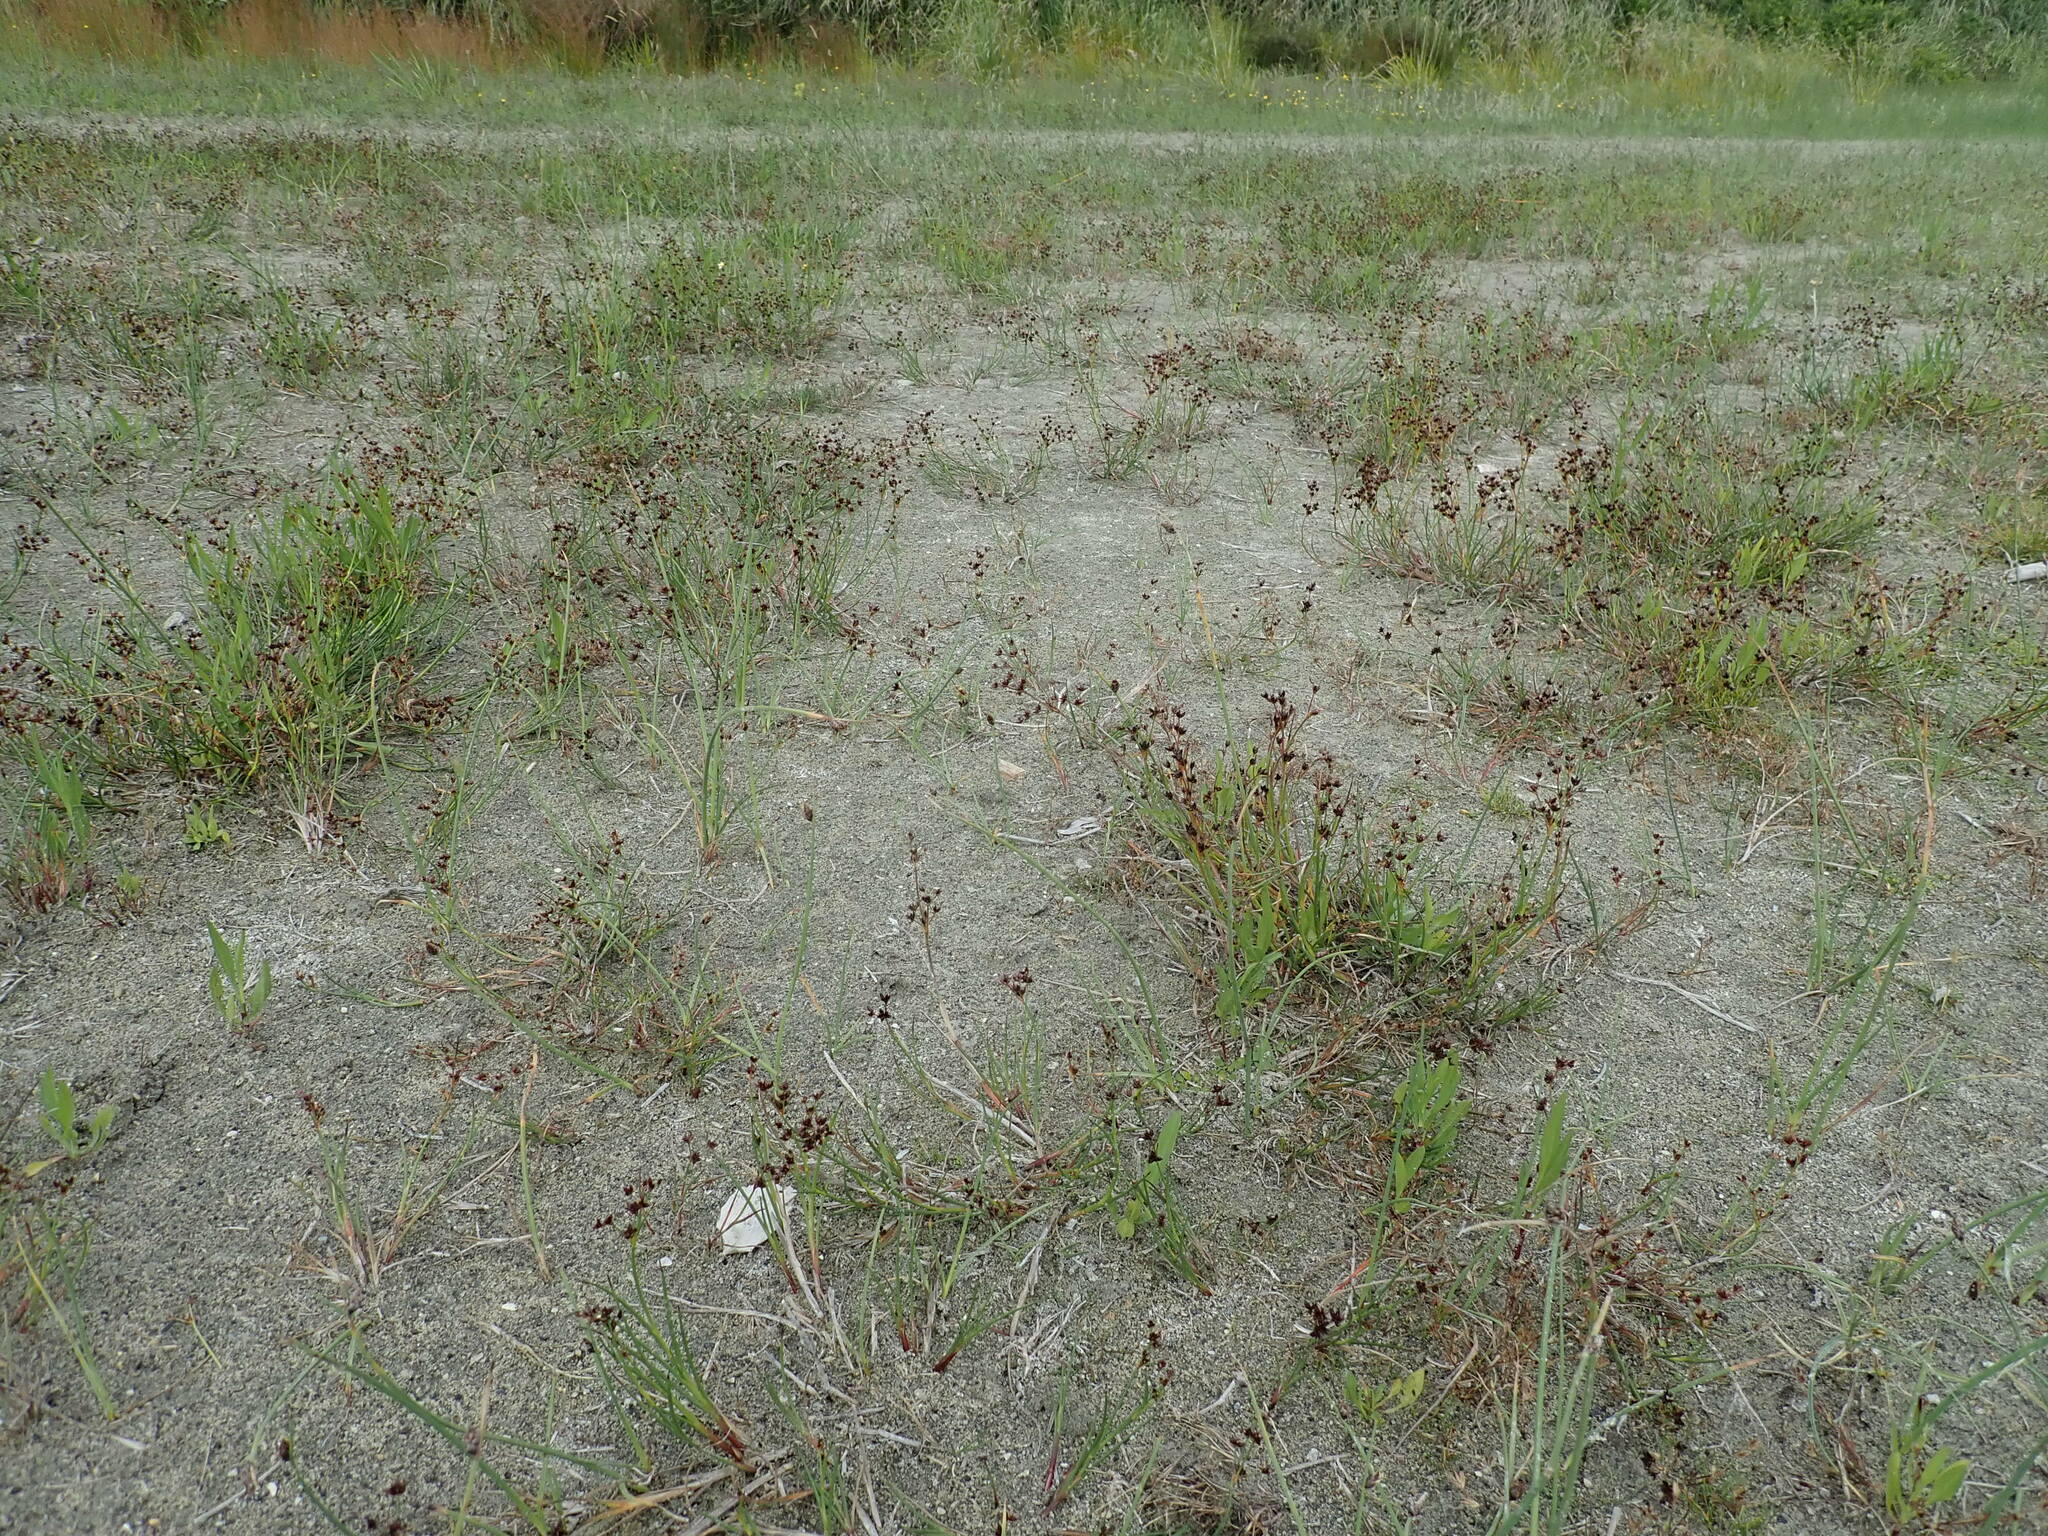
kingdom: Plantae
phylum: Tracheophyta
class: Liliopsida
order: Poales
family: Juncaceae
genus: Juncus
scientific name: Juncus articulatus
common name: Jointed rush
